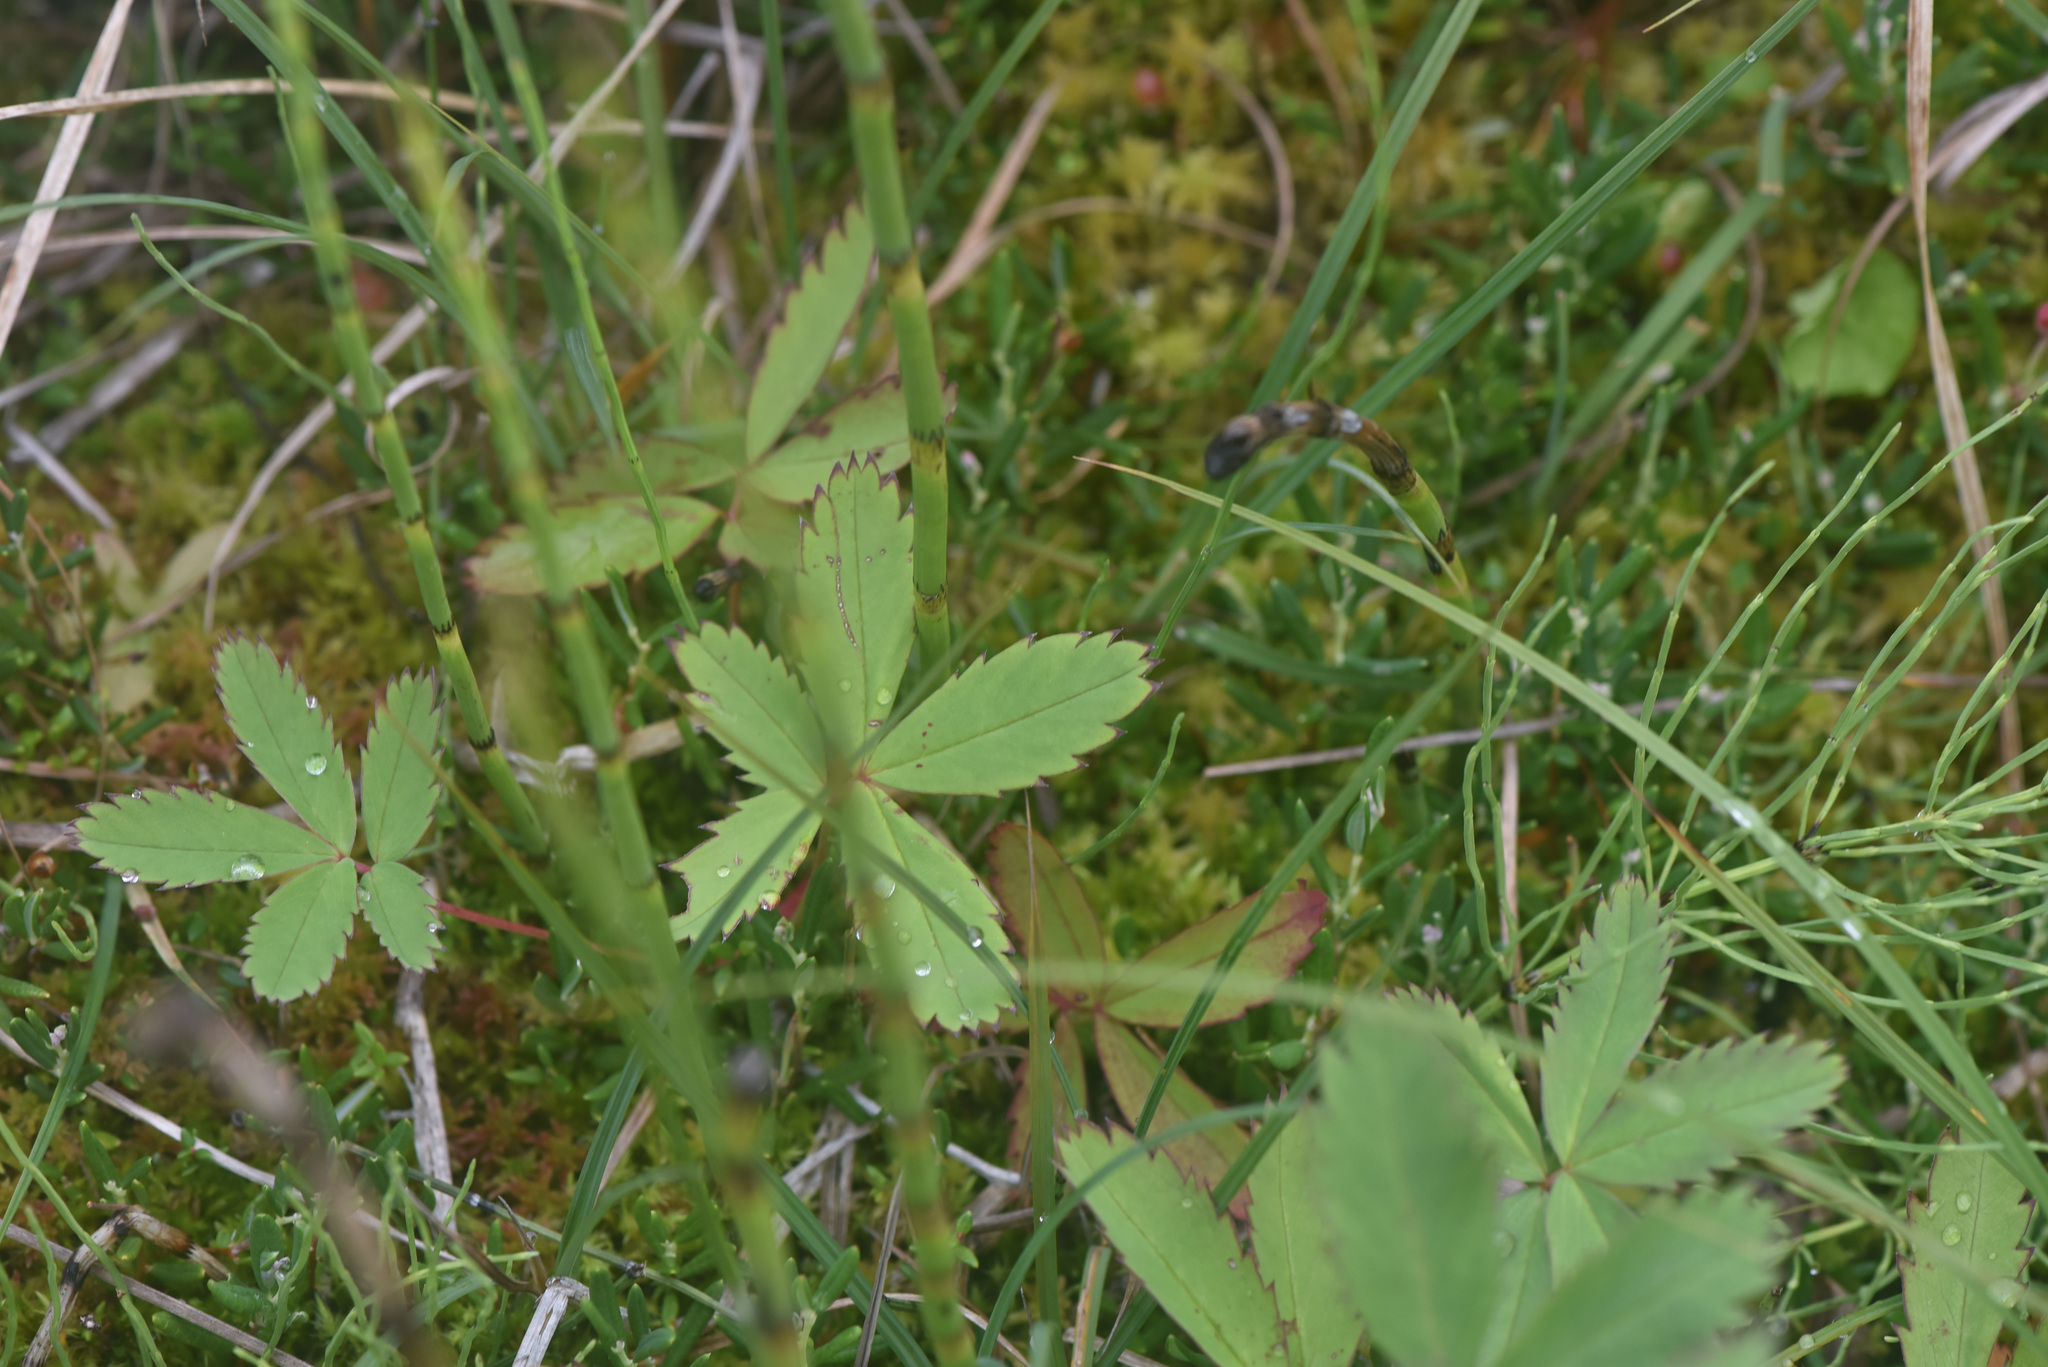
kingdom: Plantae
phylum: Tracheophyta
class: Magnoliopsida
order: Rosales
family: Rosaceae
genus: Comarum
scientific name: Comarum palustre
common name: Marsh cinquefoil
